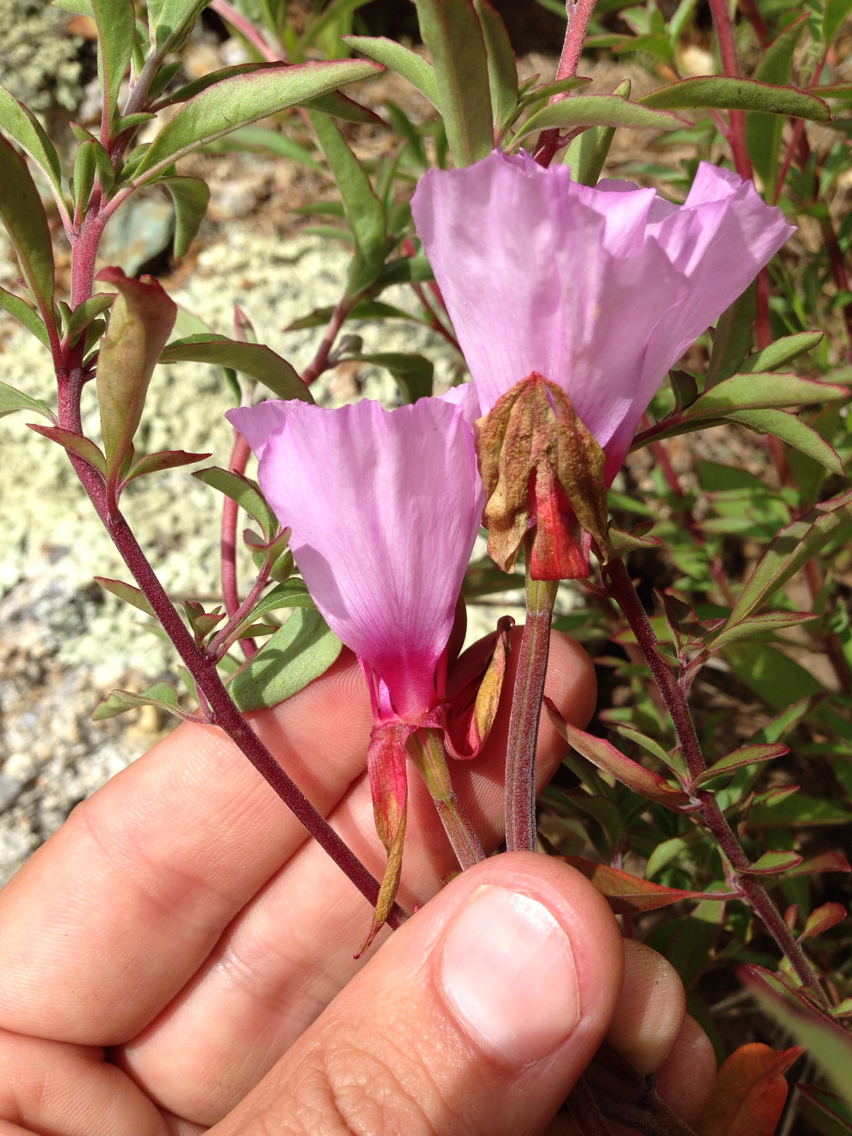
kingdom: Plantae
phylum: Tracheophyta
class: Magnoliopsida
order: Myrtales
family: Onagraceae
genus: Clarkia
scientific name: Clarkia rubicunda
